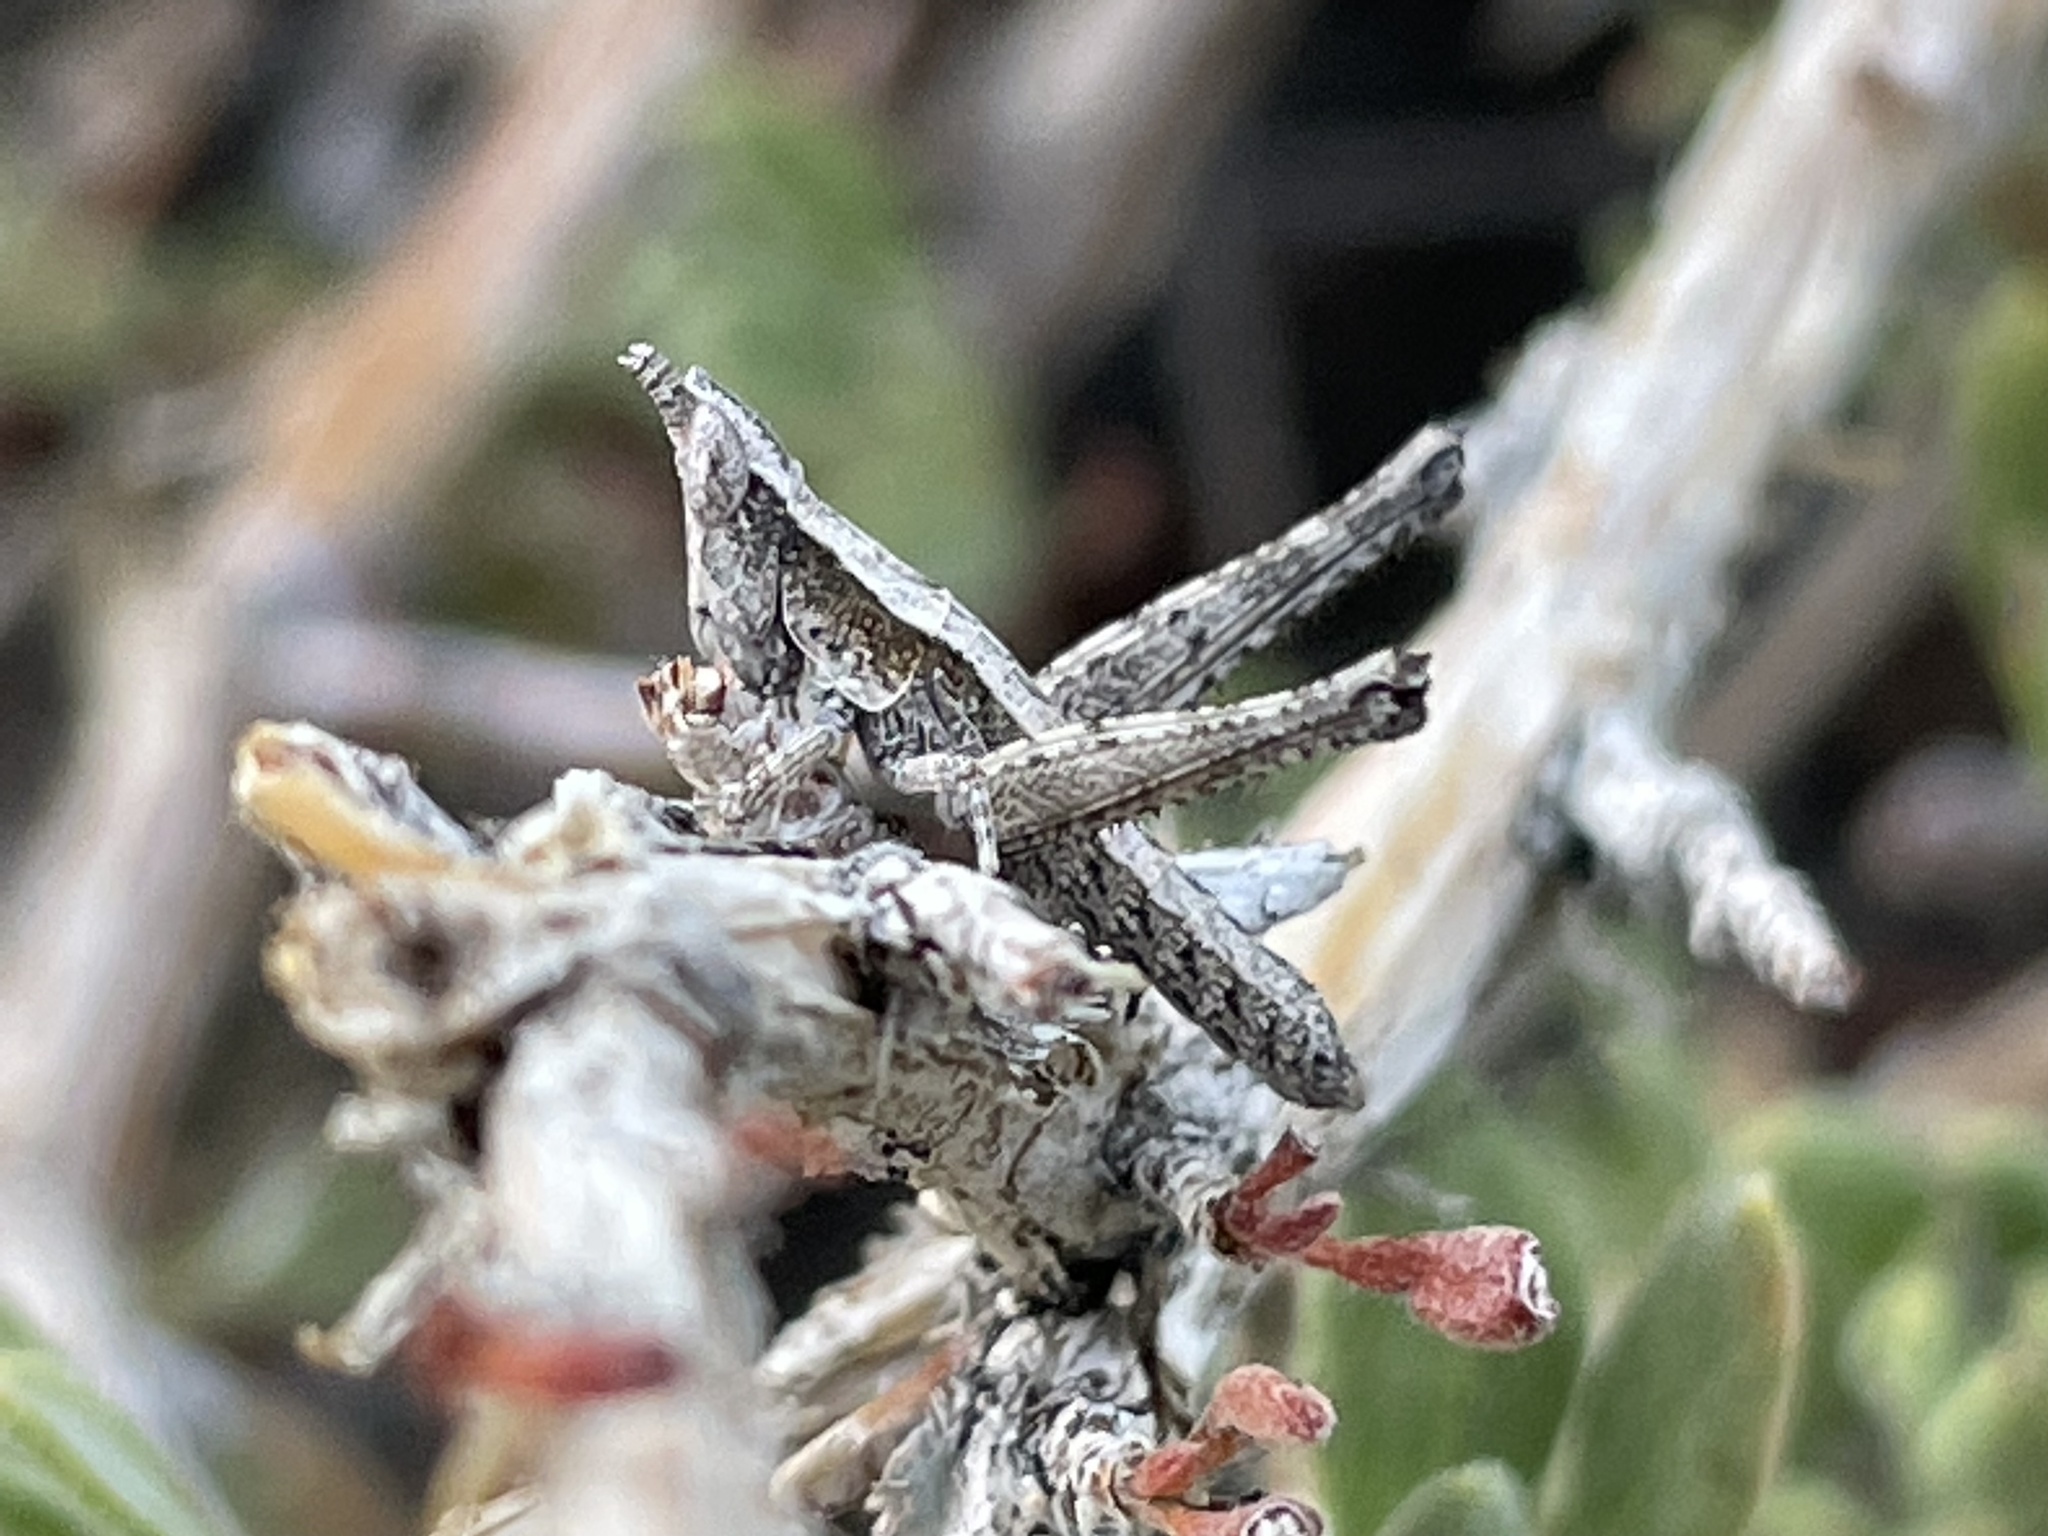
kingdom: Animalia
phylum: Arthropoda
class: Insecta
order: Orthoptera
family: Eumastacidae
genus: Morsea
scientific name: Morsea californica
